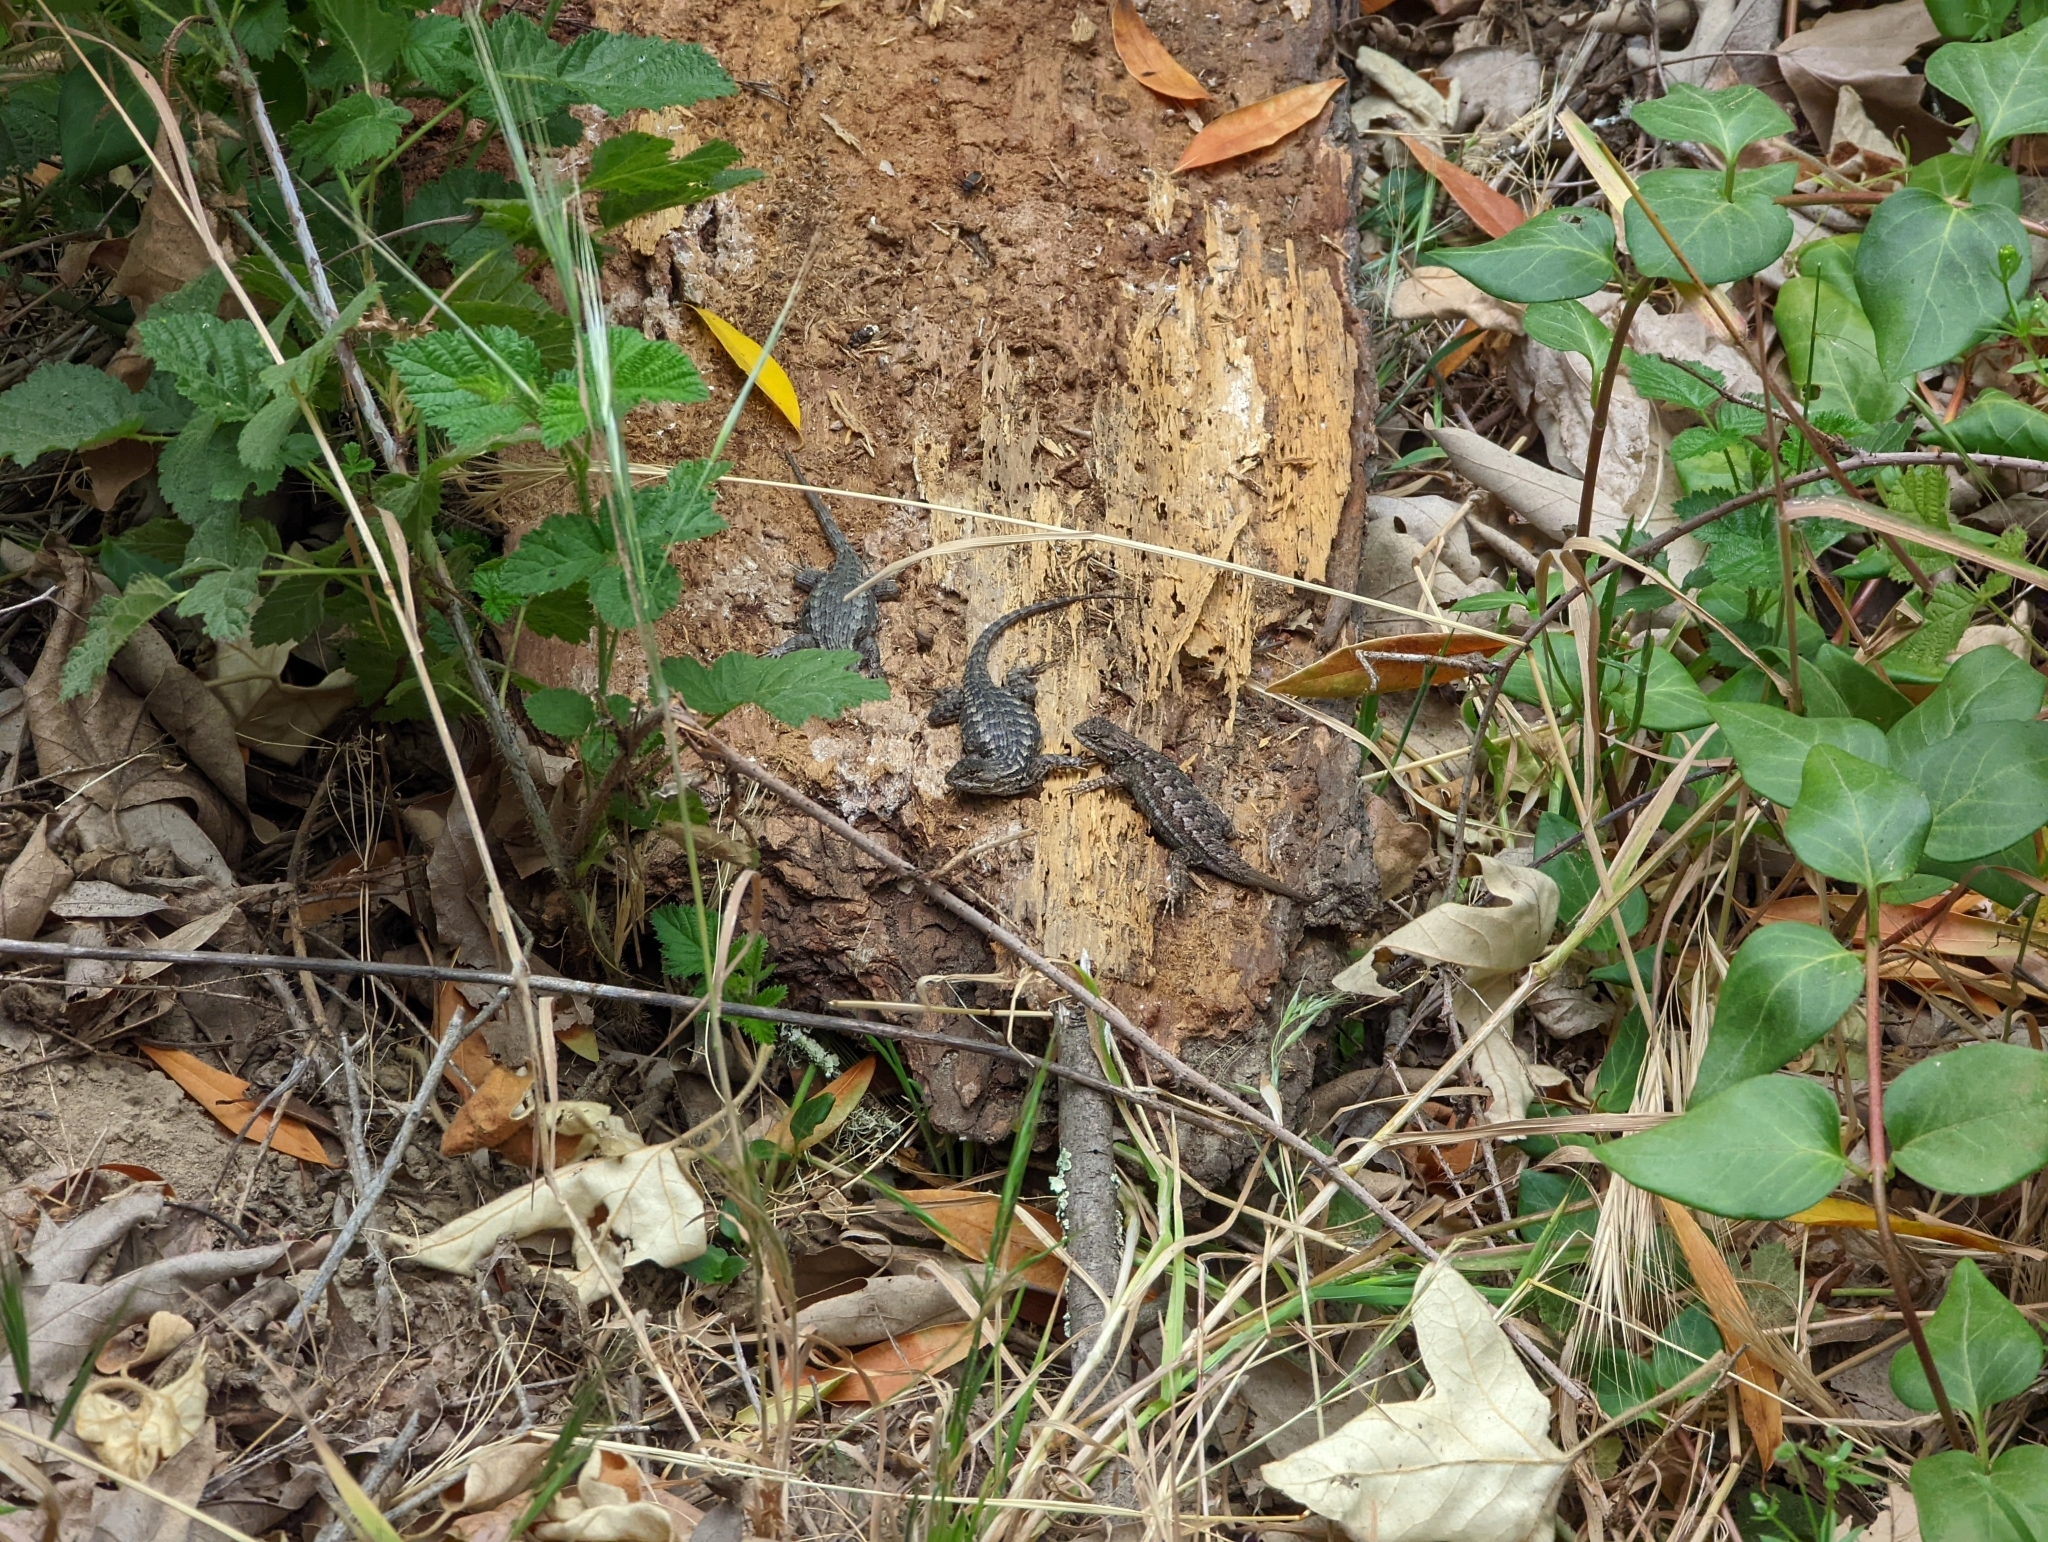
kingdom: Animalia
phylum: Chordata
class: Squamata
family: Phrynosomatidae
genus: Sceloporus
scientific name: Sceloporus occidentalis
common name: Western fence lizard
